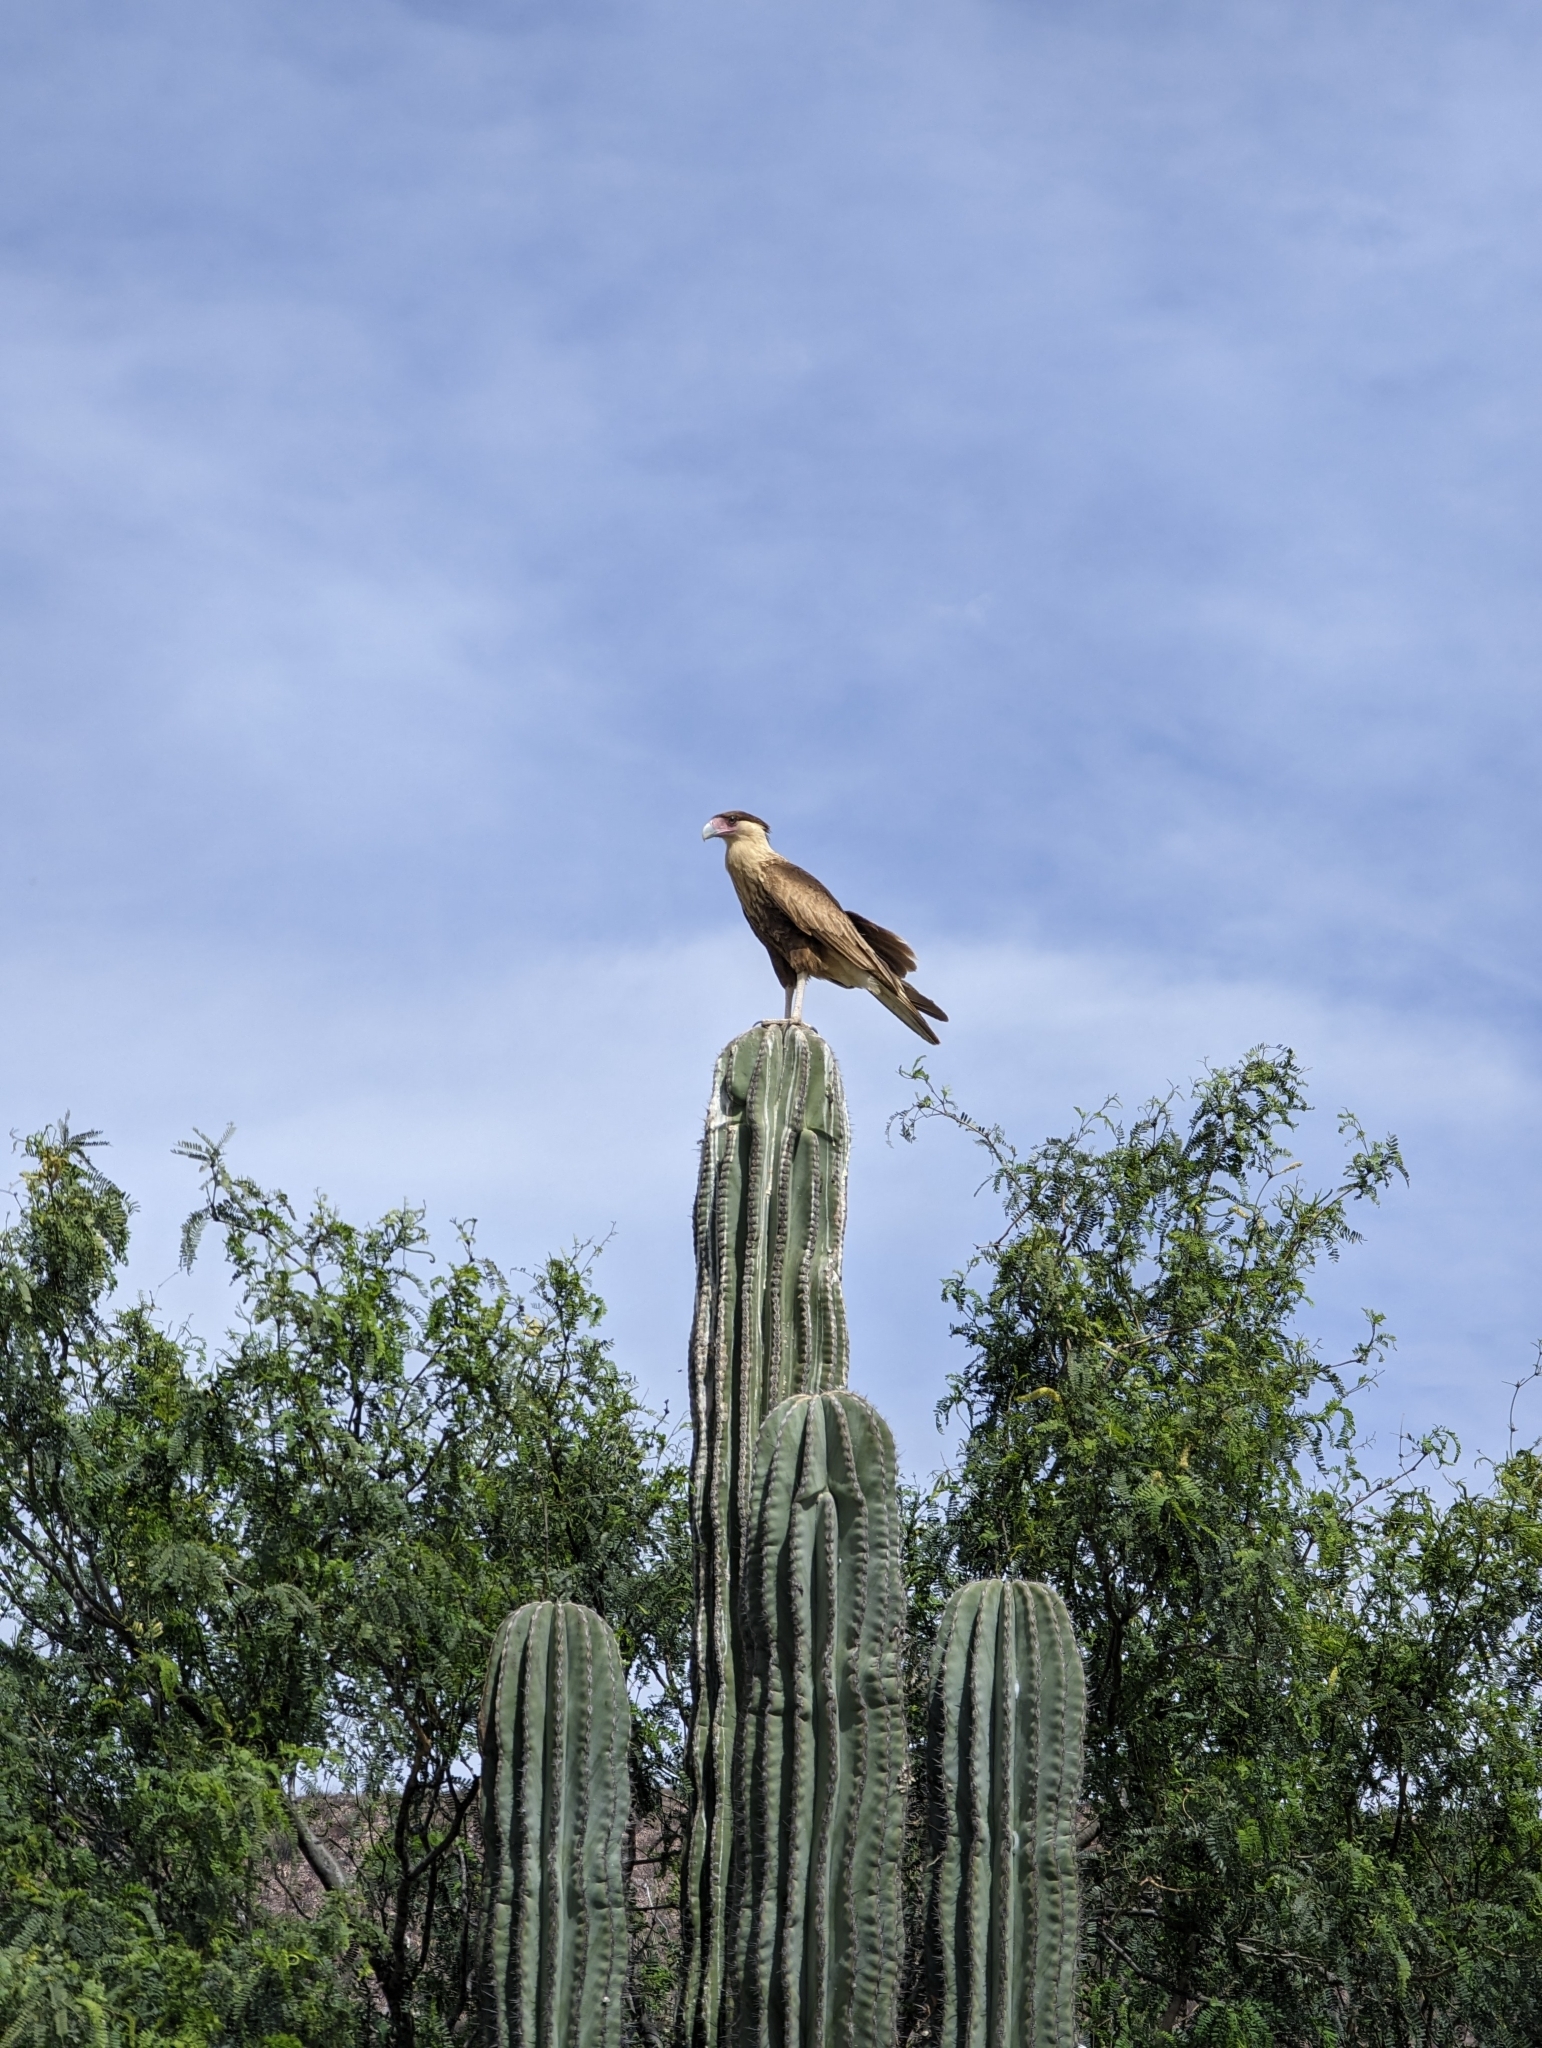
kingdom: Animalia
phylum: Chordata
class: Aves
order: Falconiformes
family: Falconidae
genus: Caracara
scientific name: Caracara plancus
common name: Southern caracara
